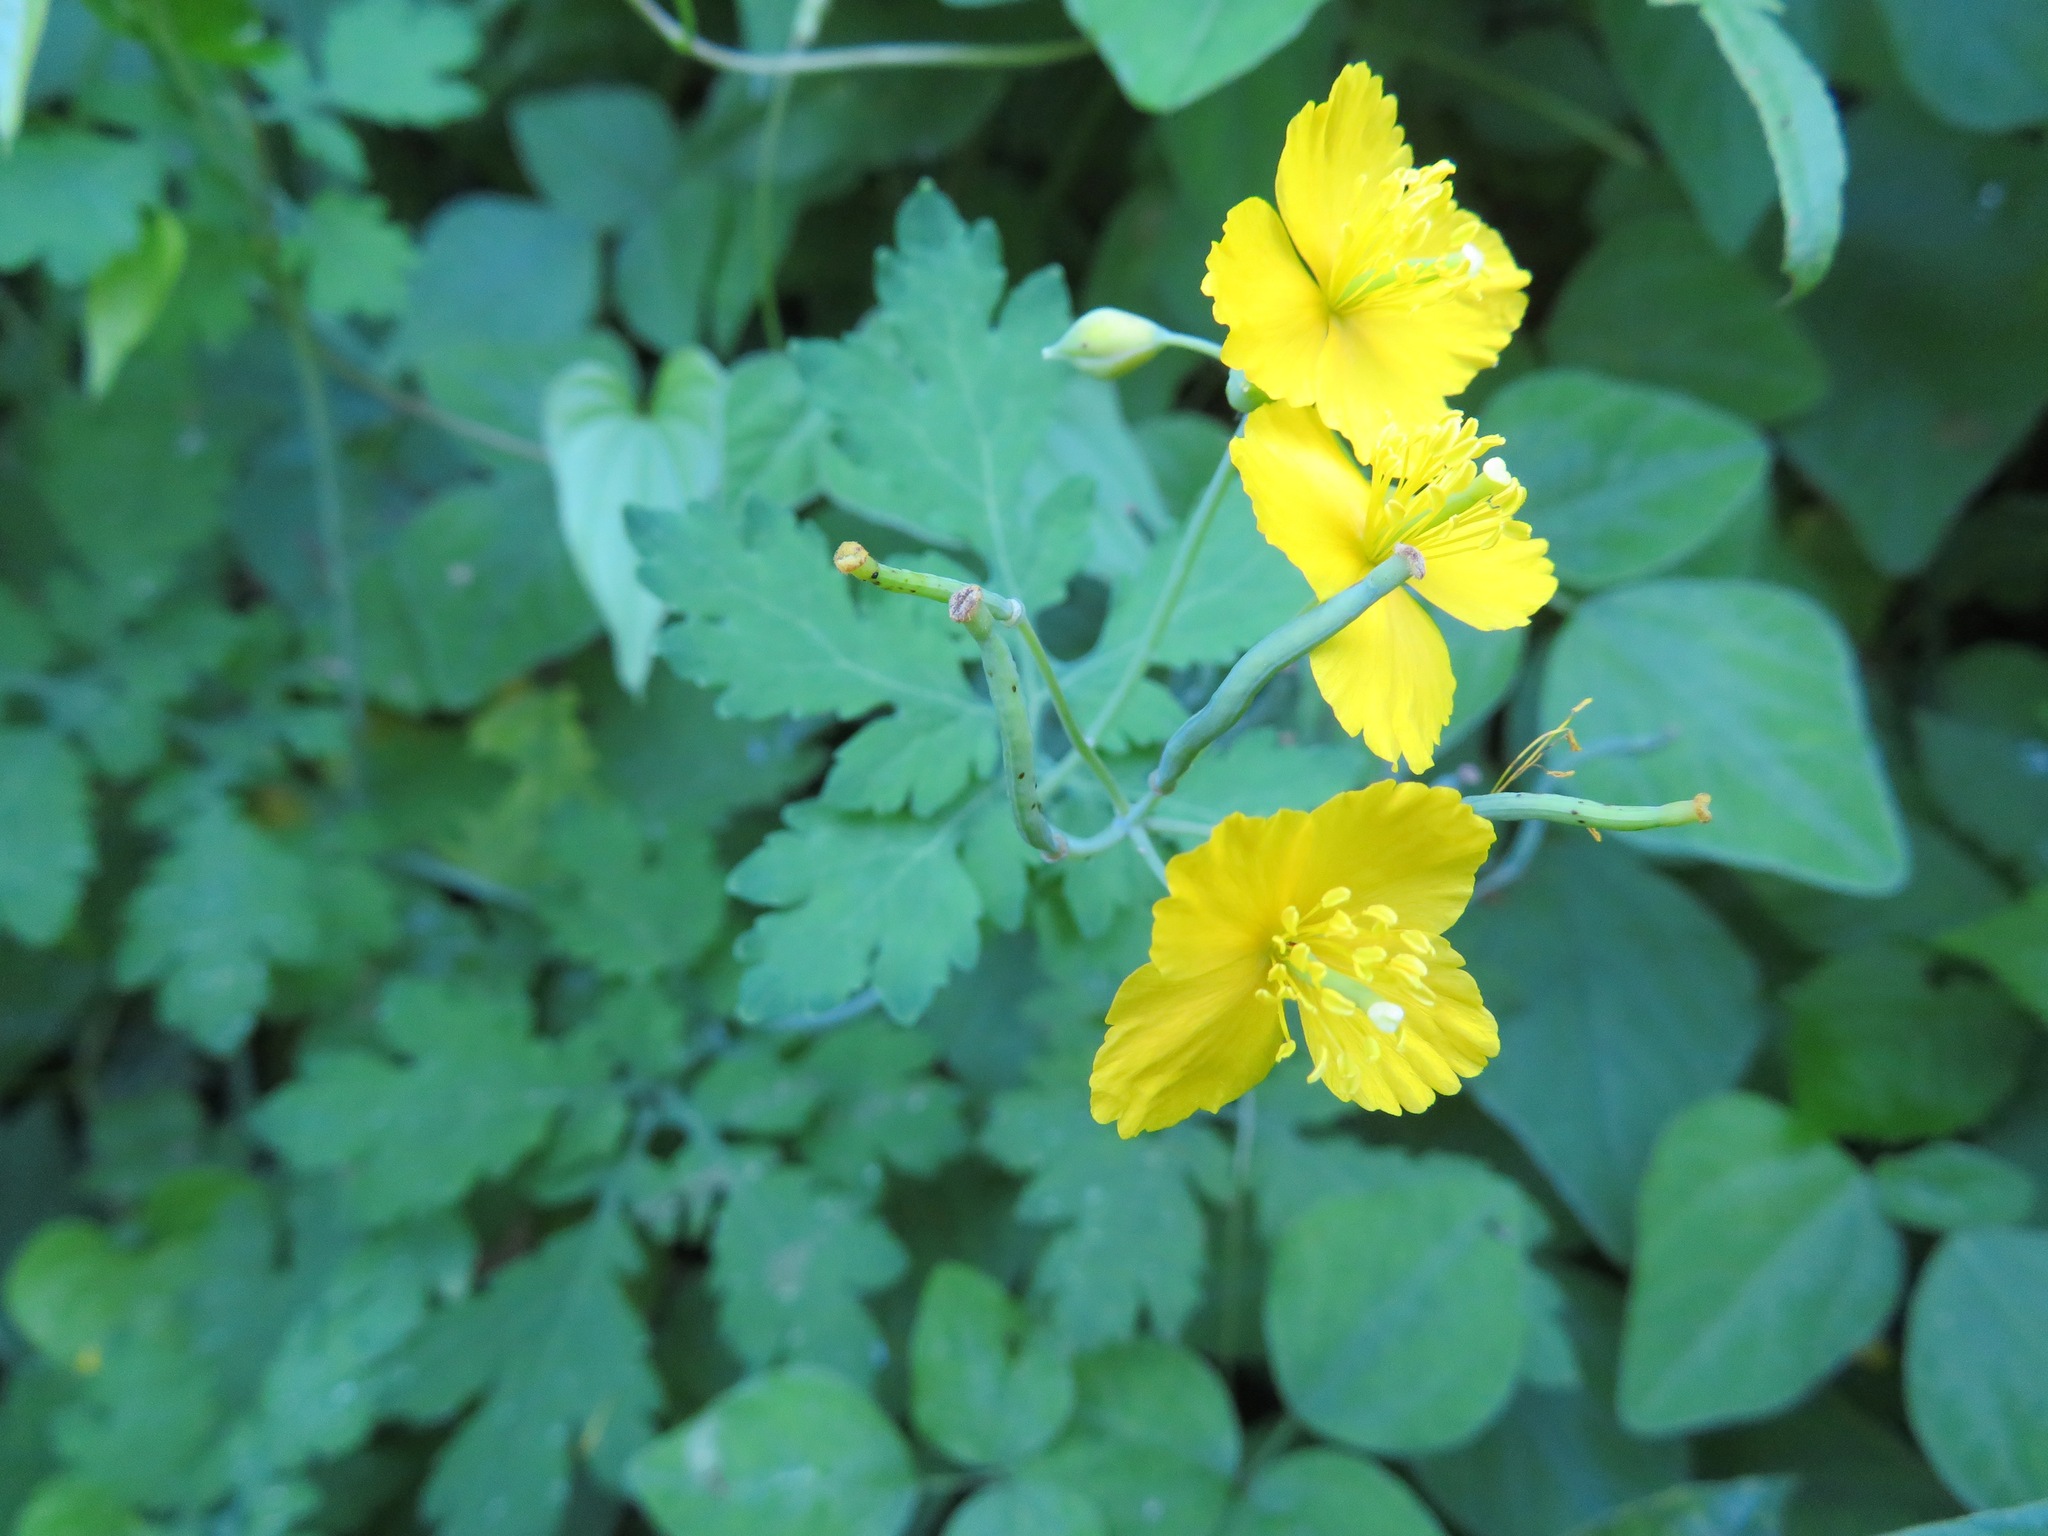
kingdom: Plantae
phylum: Tracheophyta
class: Magnoliopsida
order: Ranunculales
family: Papaveraceae
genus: Chelidonium
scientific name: Chelidonium majus
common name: Greater celandine
